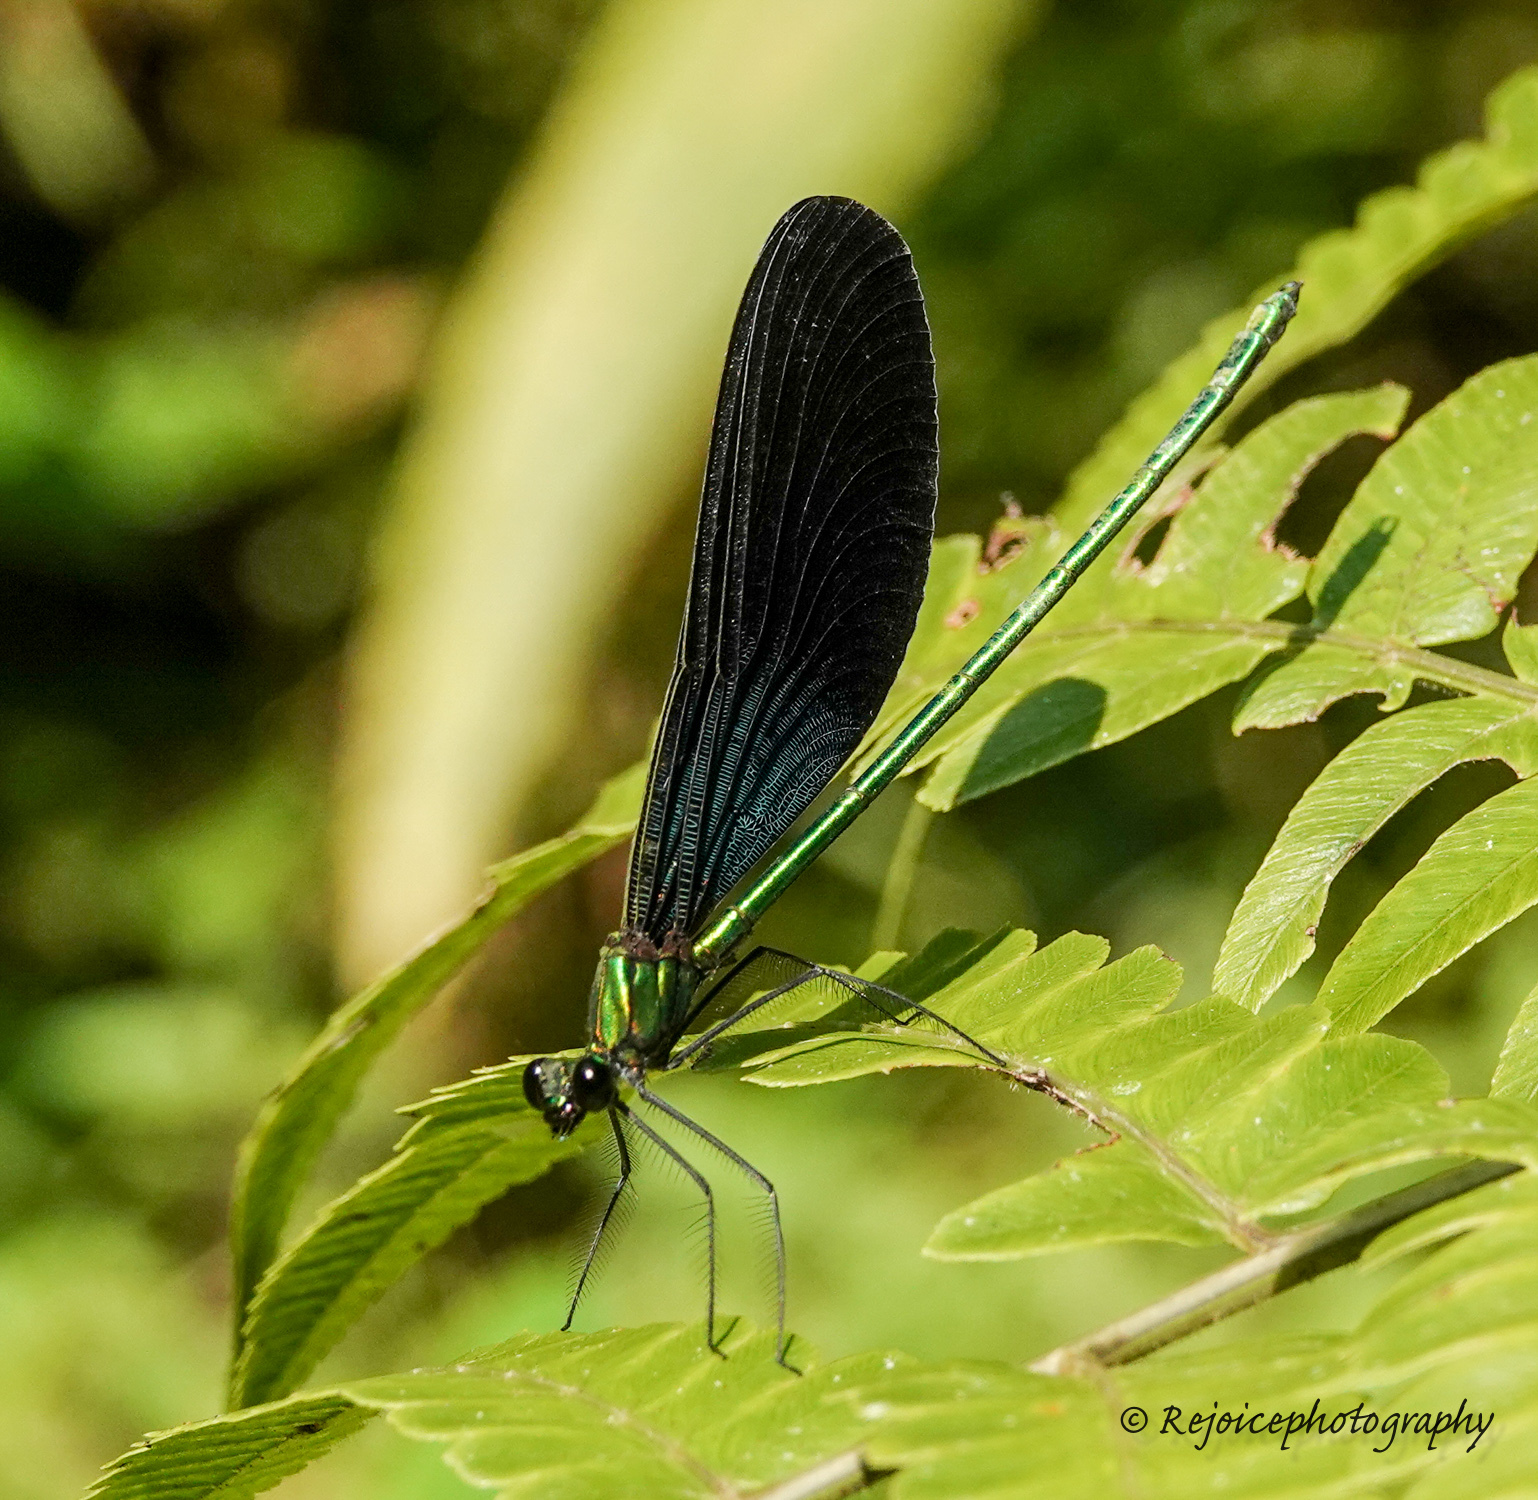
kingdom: Animalia
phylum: Arthropoda
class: Insecta
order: Odonata
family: Calopterygidae
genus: Matrona
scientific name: Matrona nigripectus
